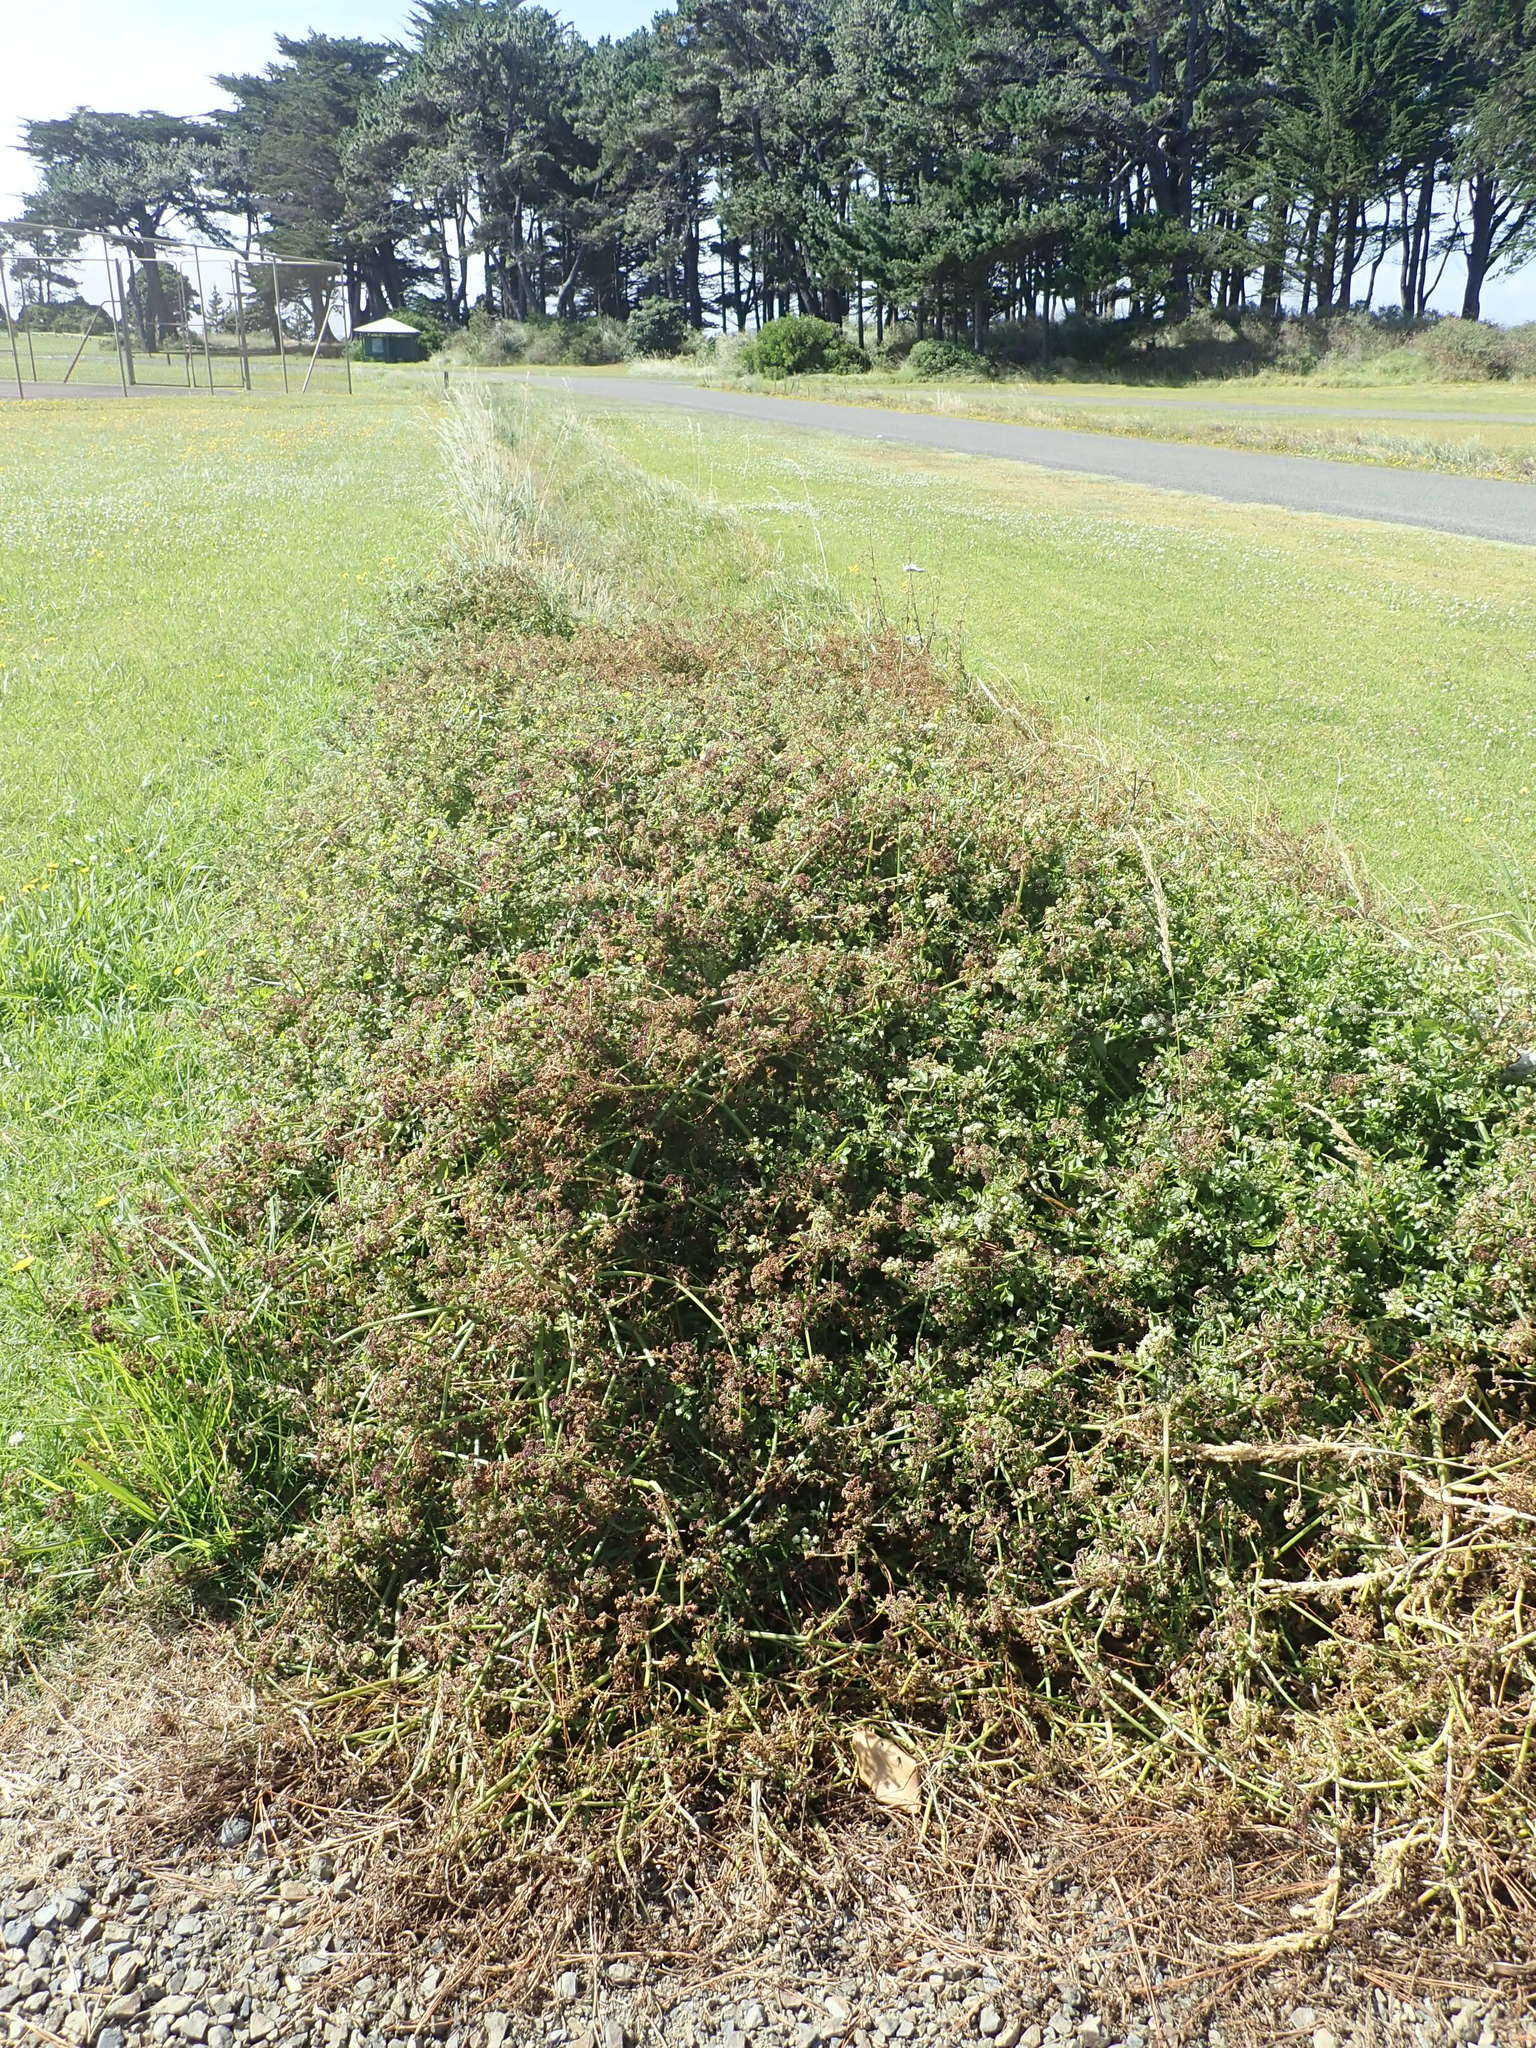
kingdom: Plantae
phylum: Tracheophyta
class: Magnoliopsida
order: Apiales
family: Apiaceae
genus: Helosciadium
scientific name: Helosciadium nodiflorum
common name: Fool's-watercress
